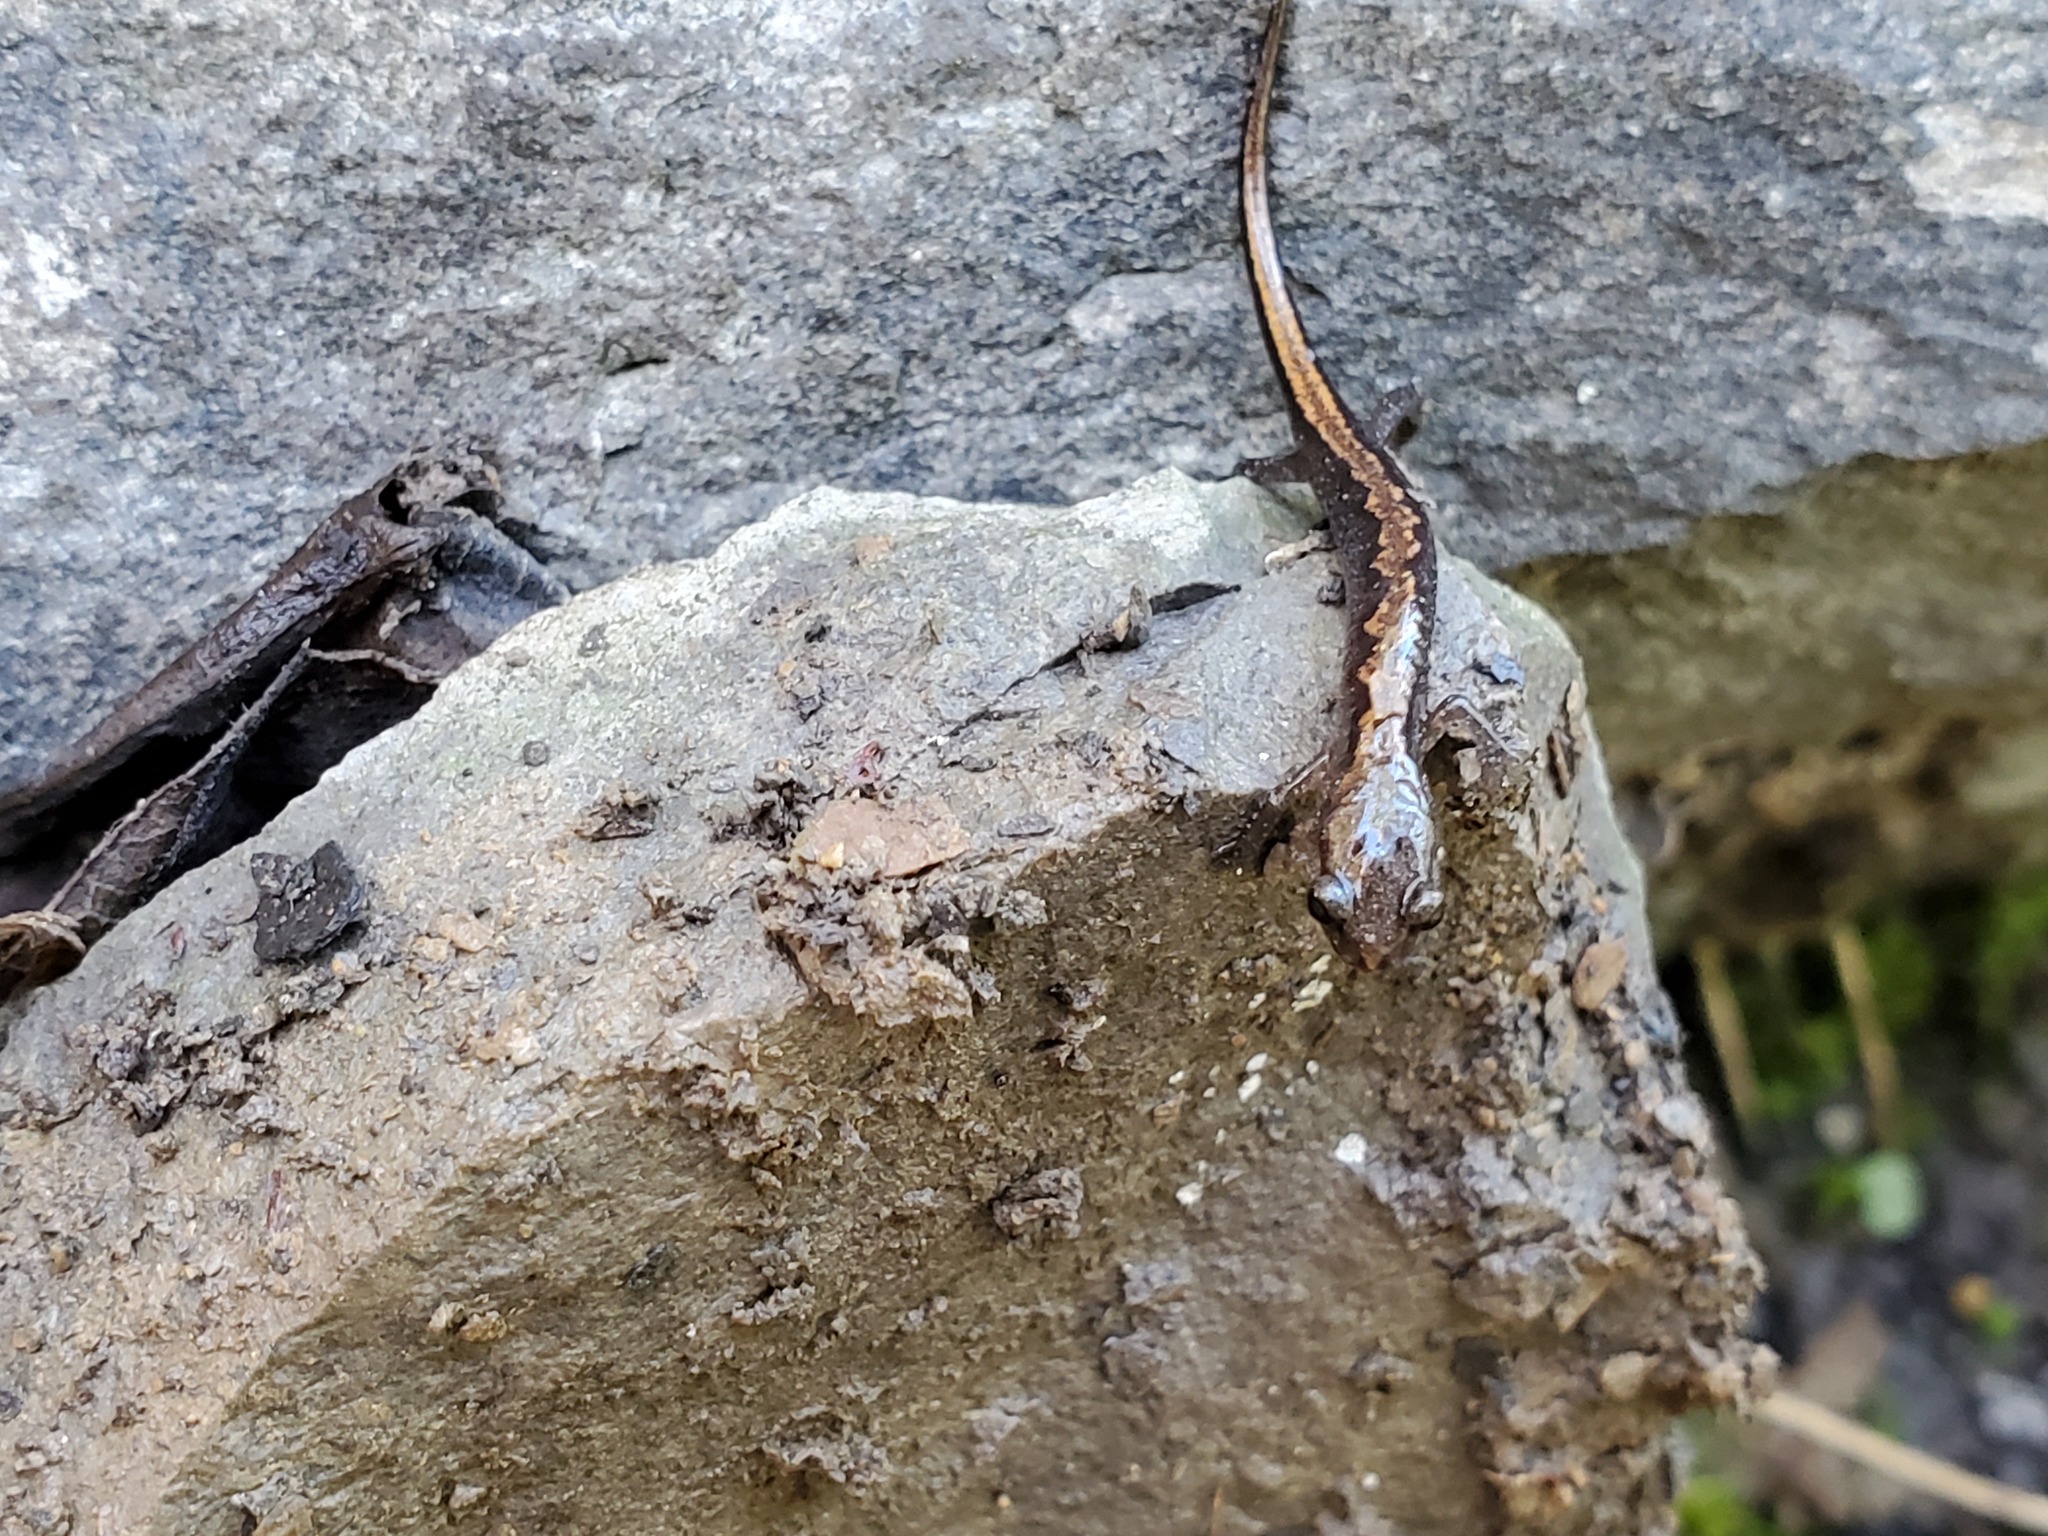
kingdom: Animalia
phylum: Chordata
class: Amphibia
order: Caudata
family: Plethodontidae
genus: Plethodon
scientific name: Plethodon dorsalis
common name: Northern zigzag salamander
